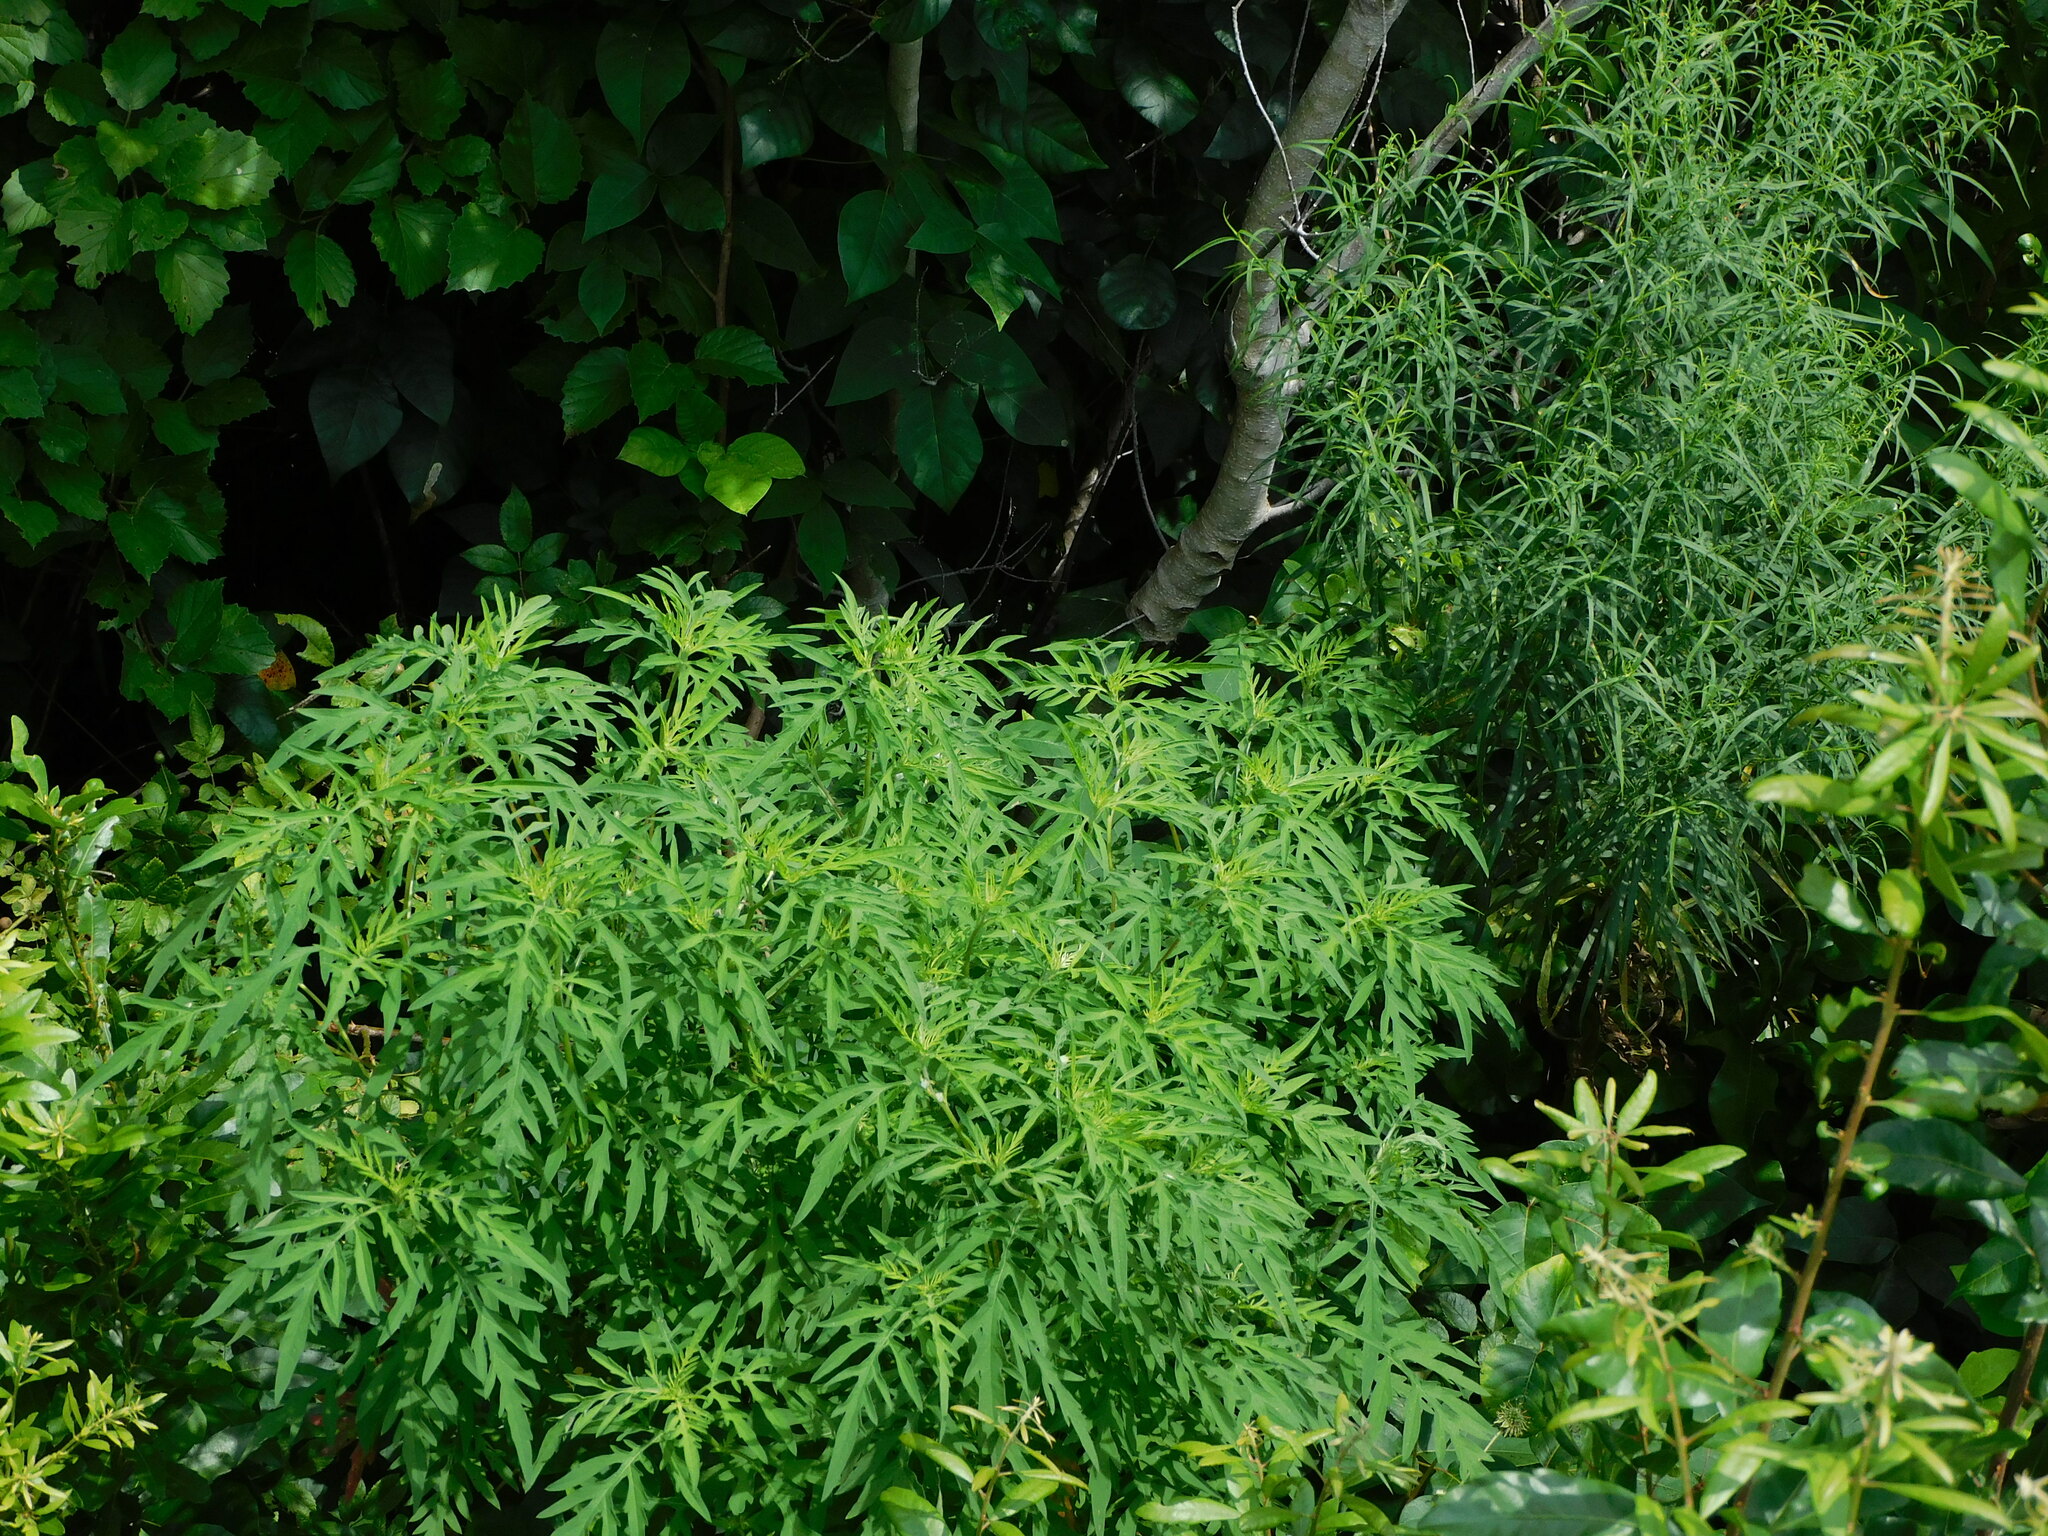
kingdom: Plantae
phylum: Tracheophyta
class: Magnoliopsida
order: Asterales
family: Asteraceae
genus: Ambrosia
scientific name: Ambrosia artemisiifolia
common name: Annual ragweed
